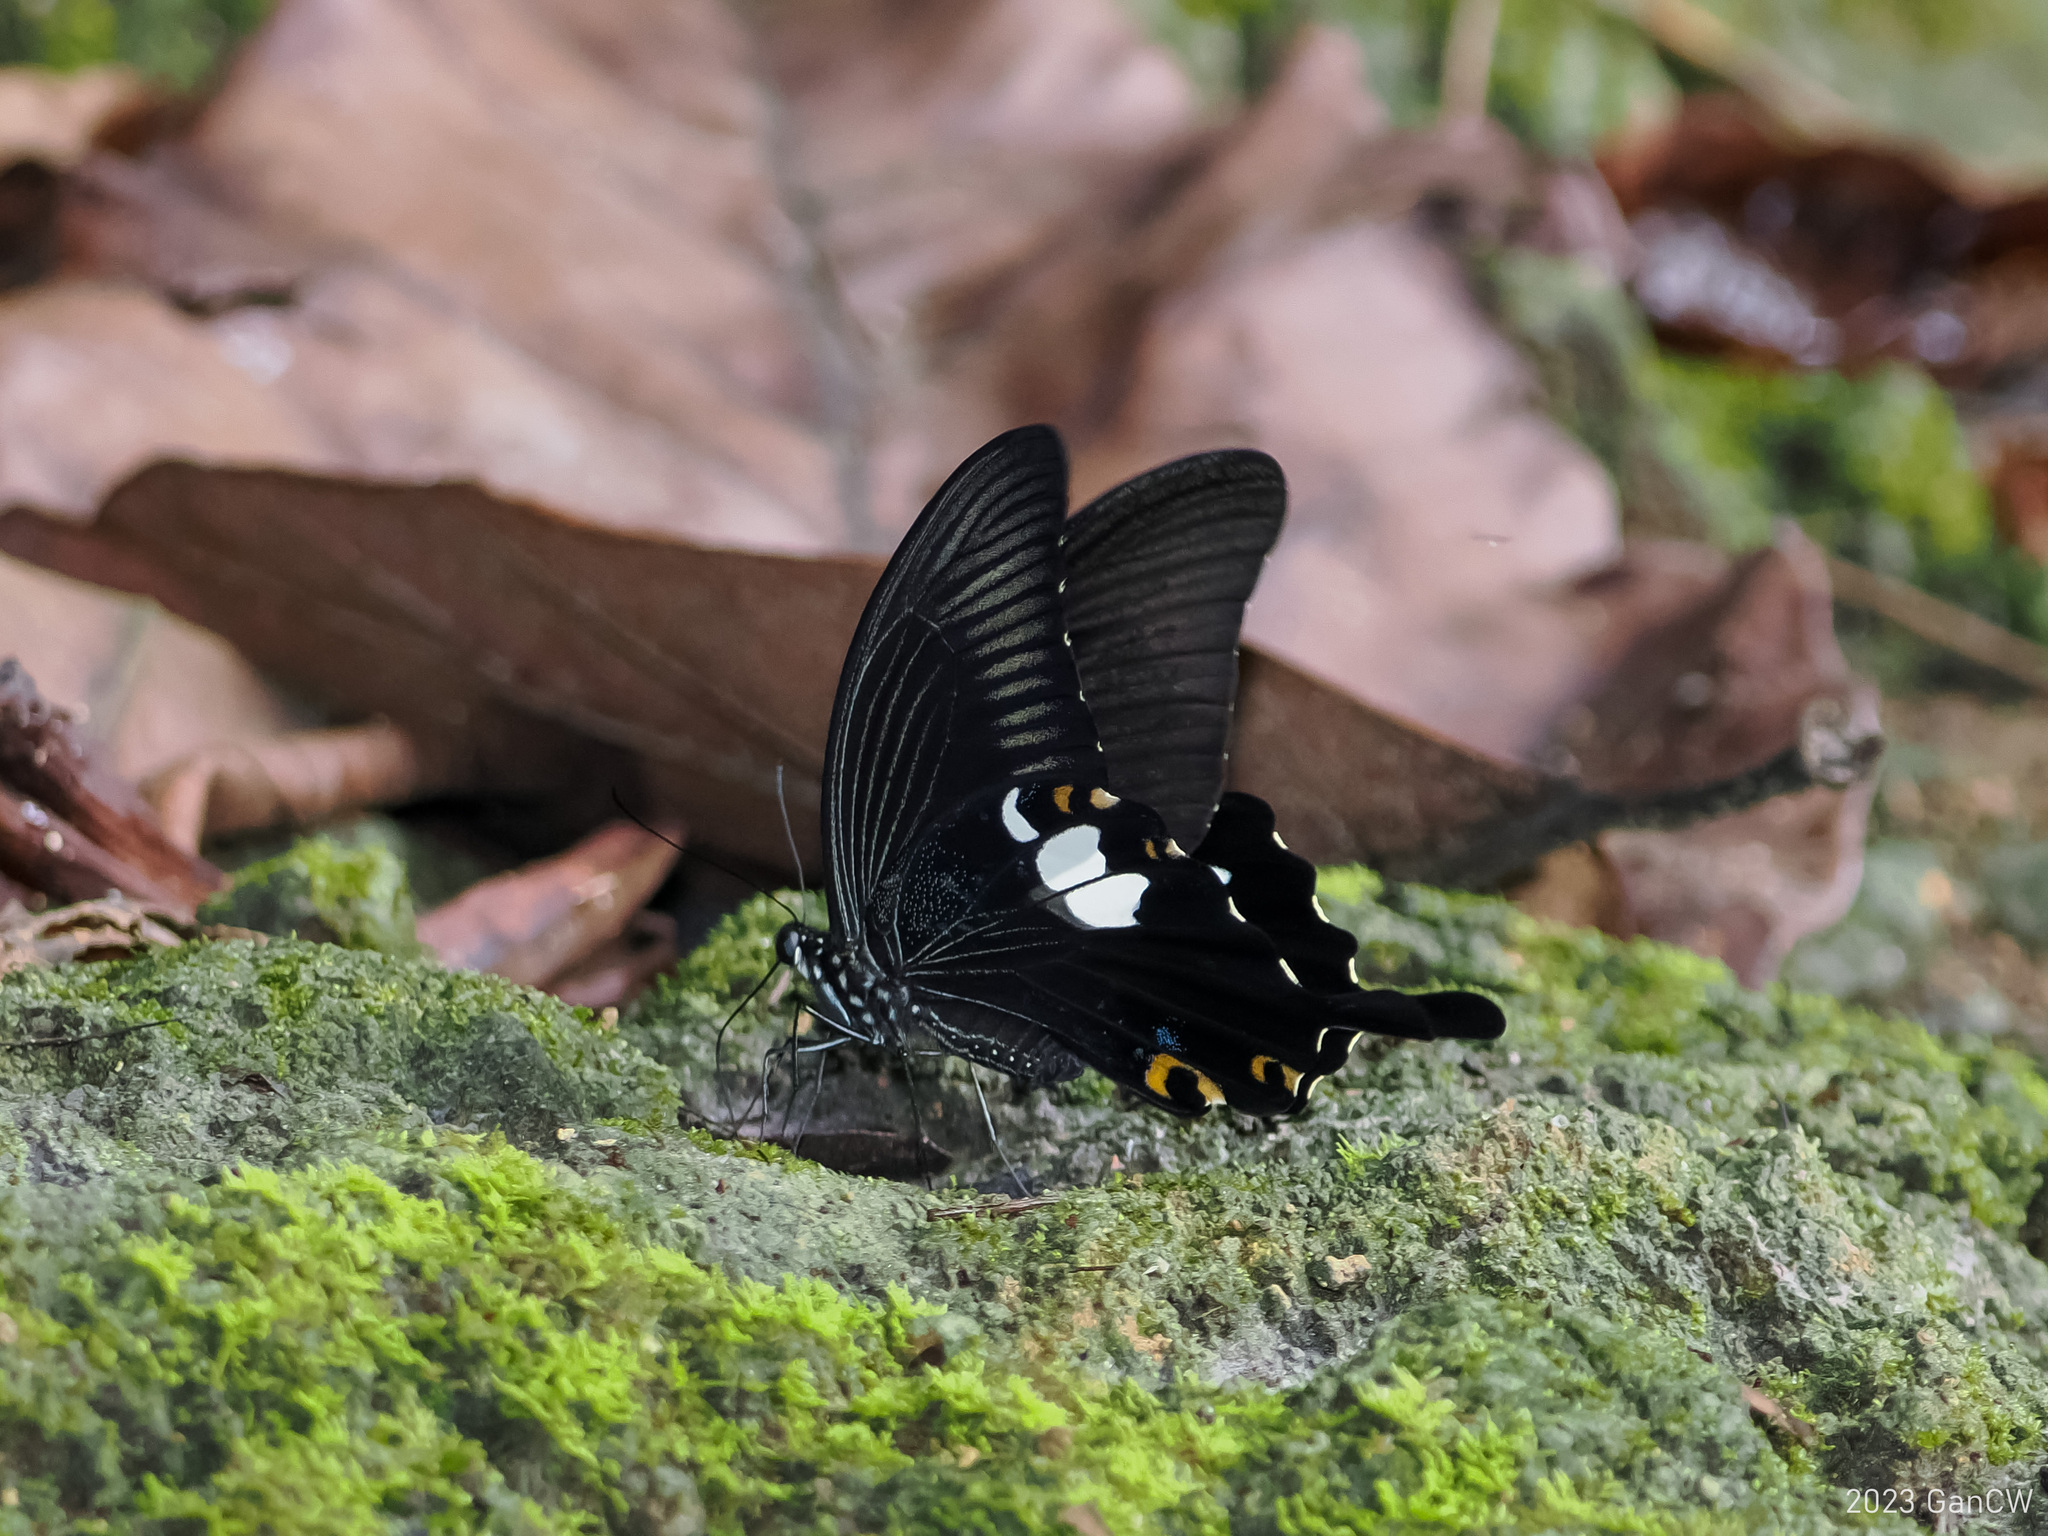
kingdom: Animalia
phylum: Arthropoda
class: Insecta
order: Lepidoptera
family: Papilionidae
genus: Papilio
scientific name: Papilio sataspes
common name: Sulawesi red helen
